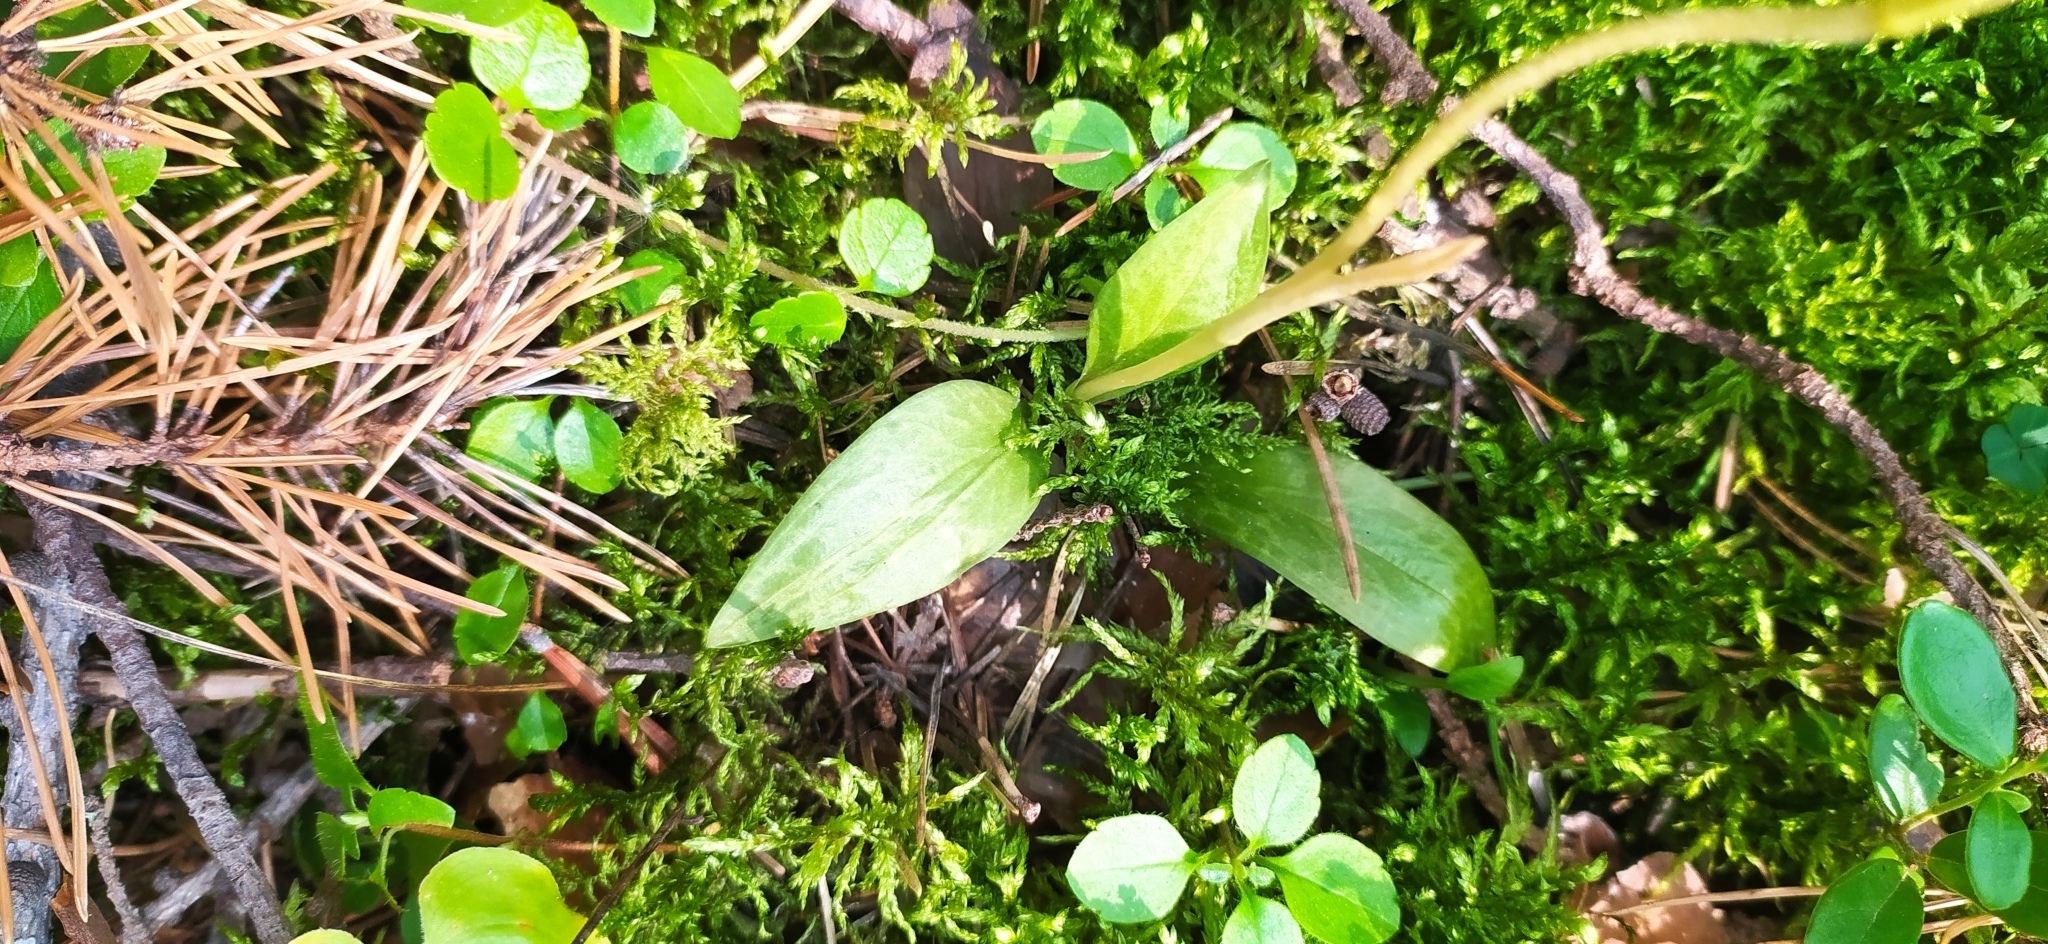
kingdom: Plantae
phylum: Tracheophyta
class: Liliopsida
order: Asparagales
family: Orchidaceae
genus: Goodyera
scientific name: Goodyera repens
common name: Creeping lady's-tresses
